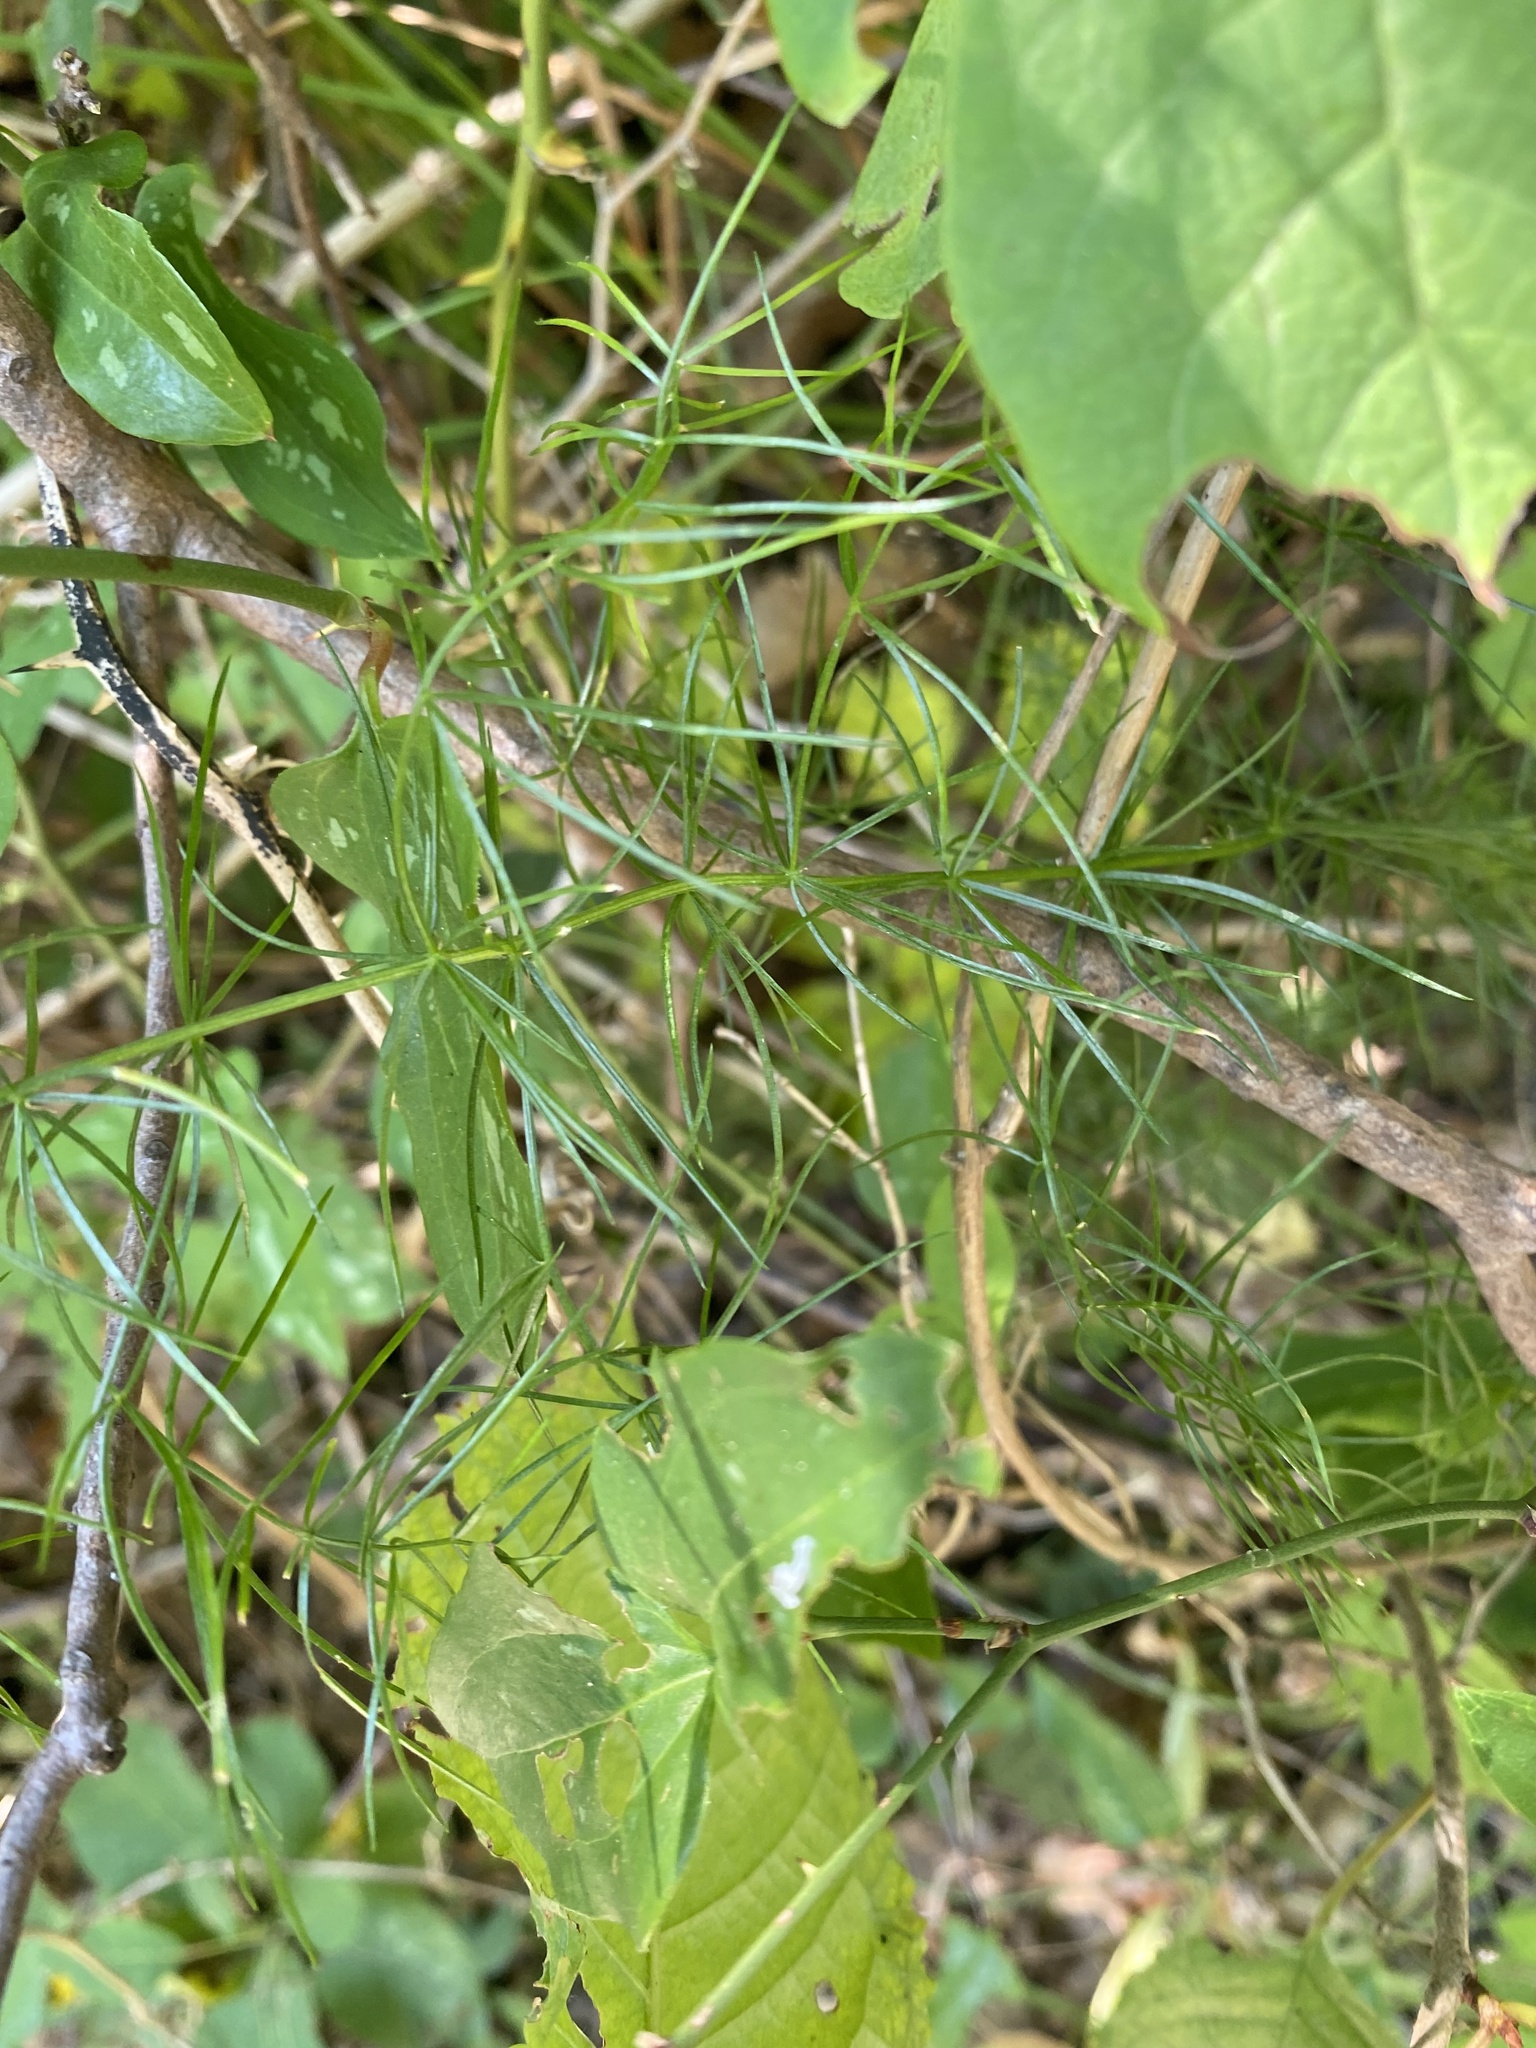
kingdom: Plantae
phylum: Tracheophyta
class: Liliopsida
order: Asparagales
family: Asparagaceae
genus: Asparagus
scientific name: Asparagus officinalis
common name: Garden asparagus
